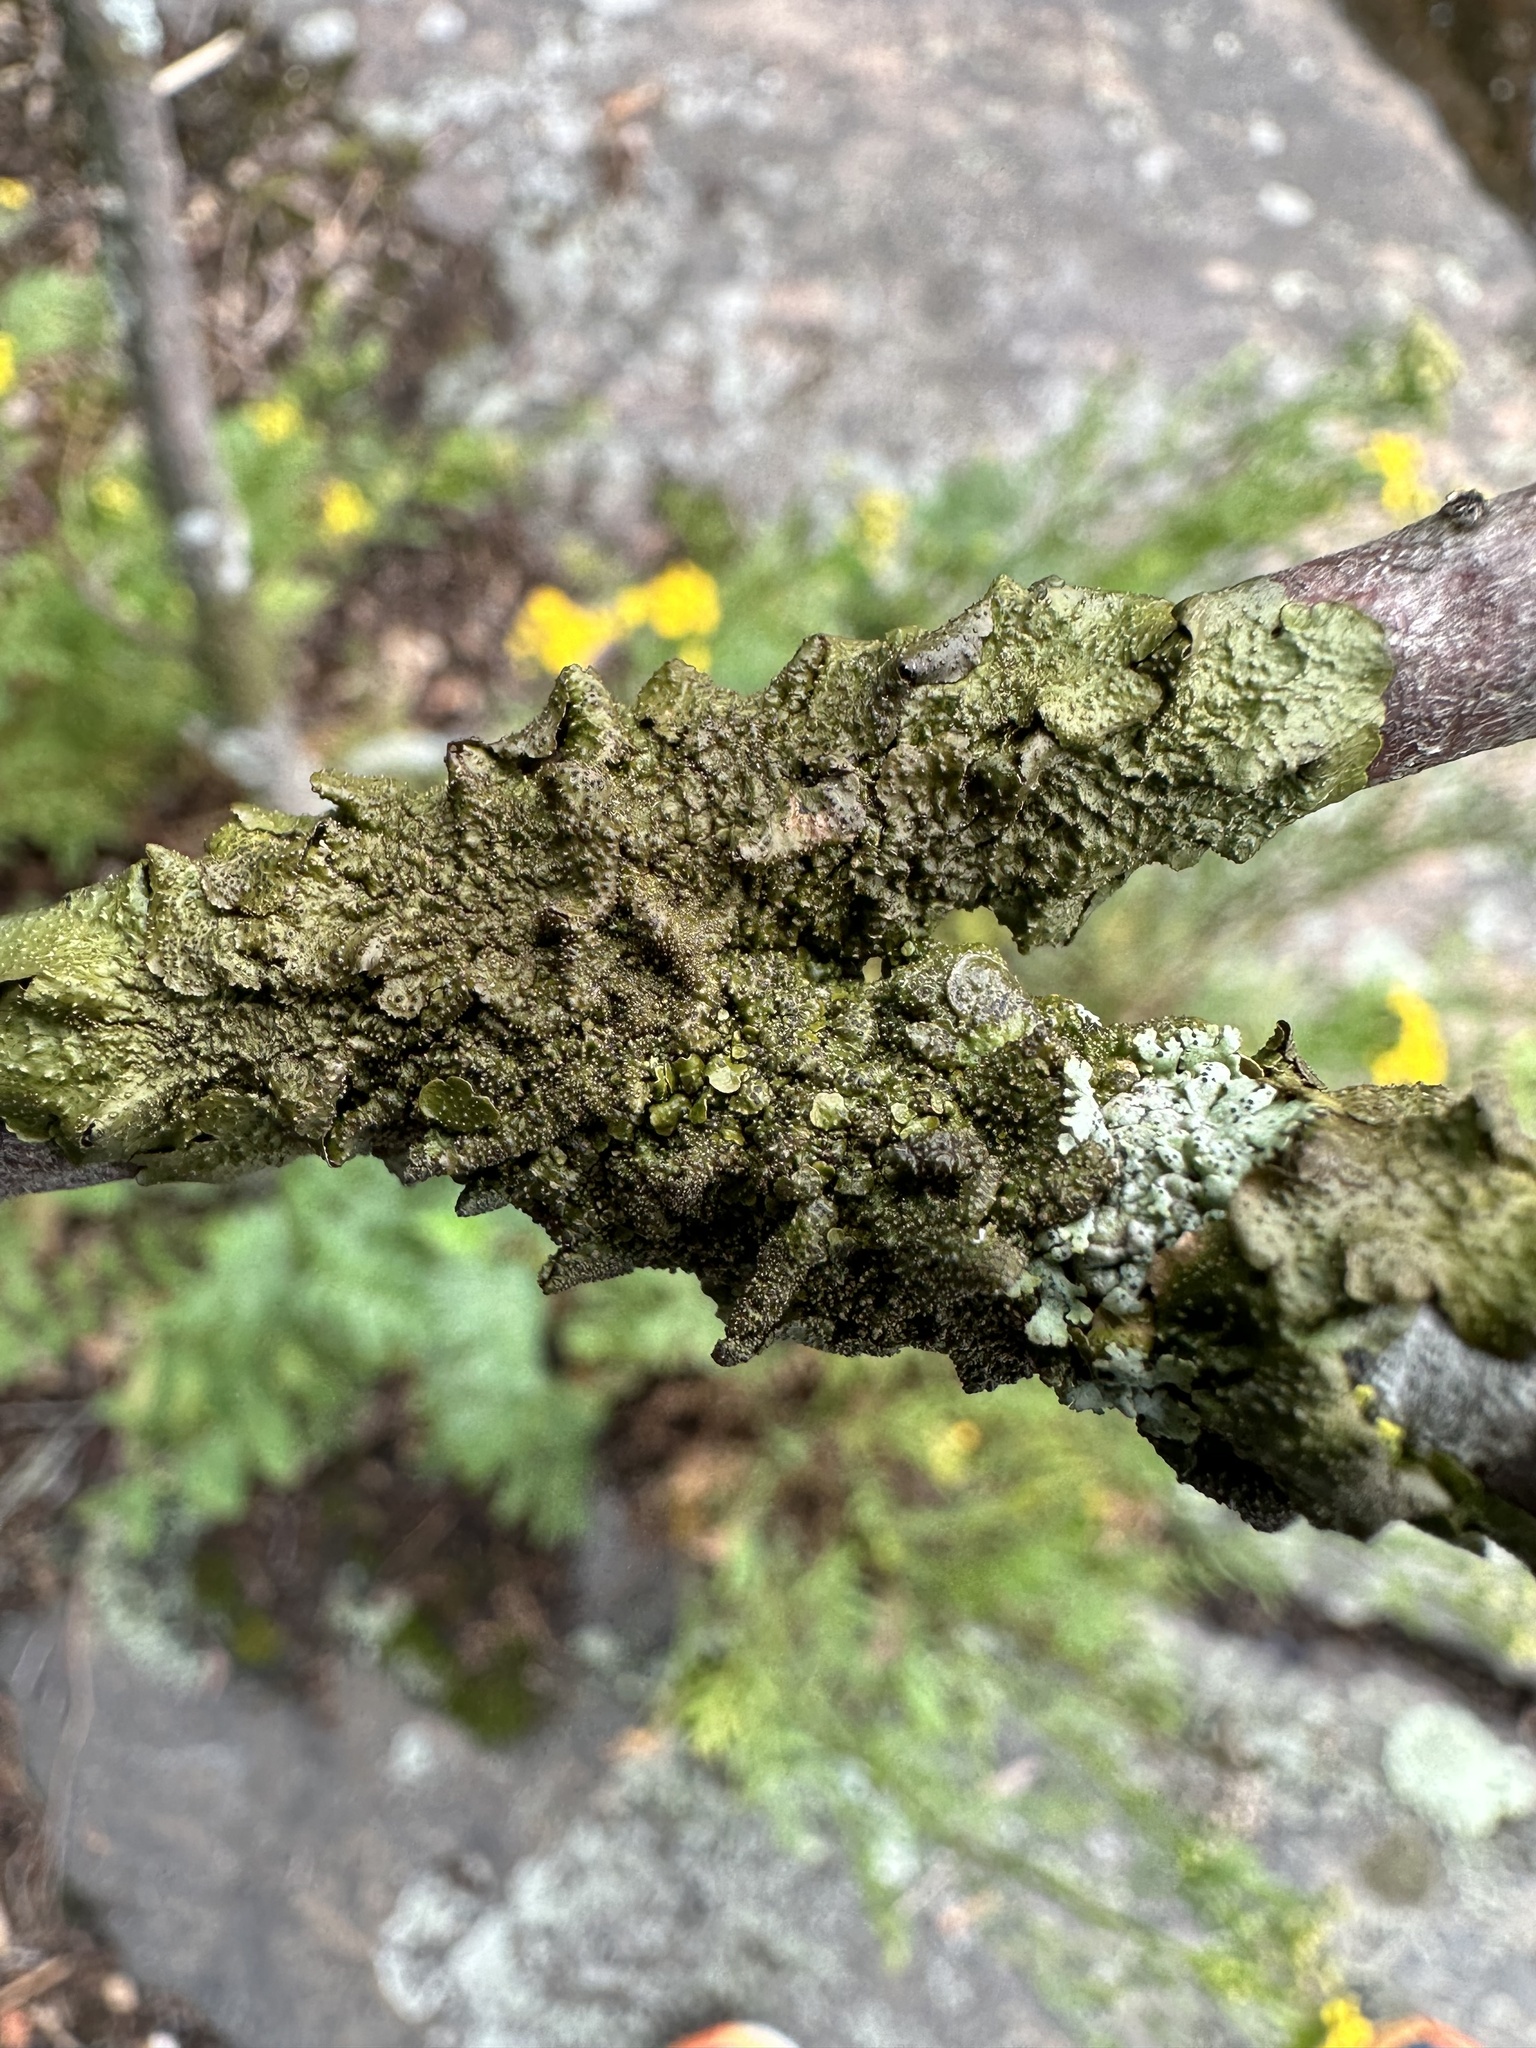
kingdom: Fungi
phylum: Ascomycota
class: Lecanoromycetes
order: Lecanorales
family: Parmeliaceae
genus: Melanohalea
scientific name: Melanohalea exasperata
